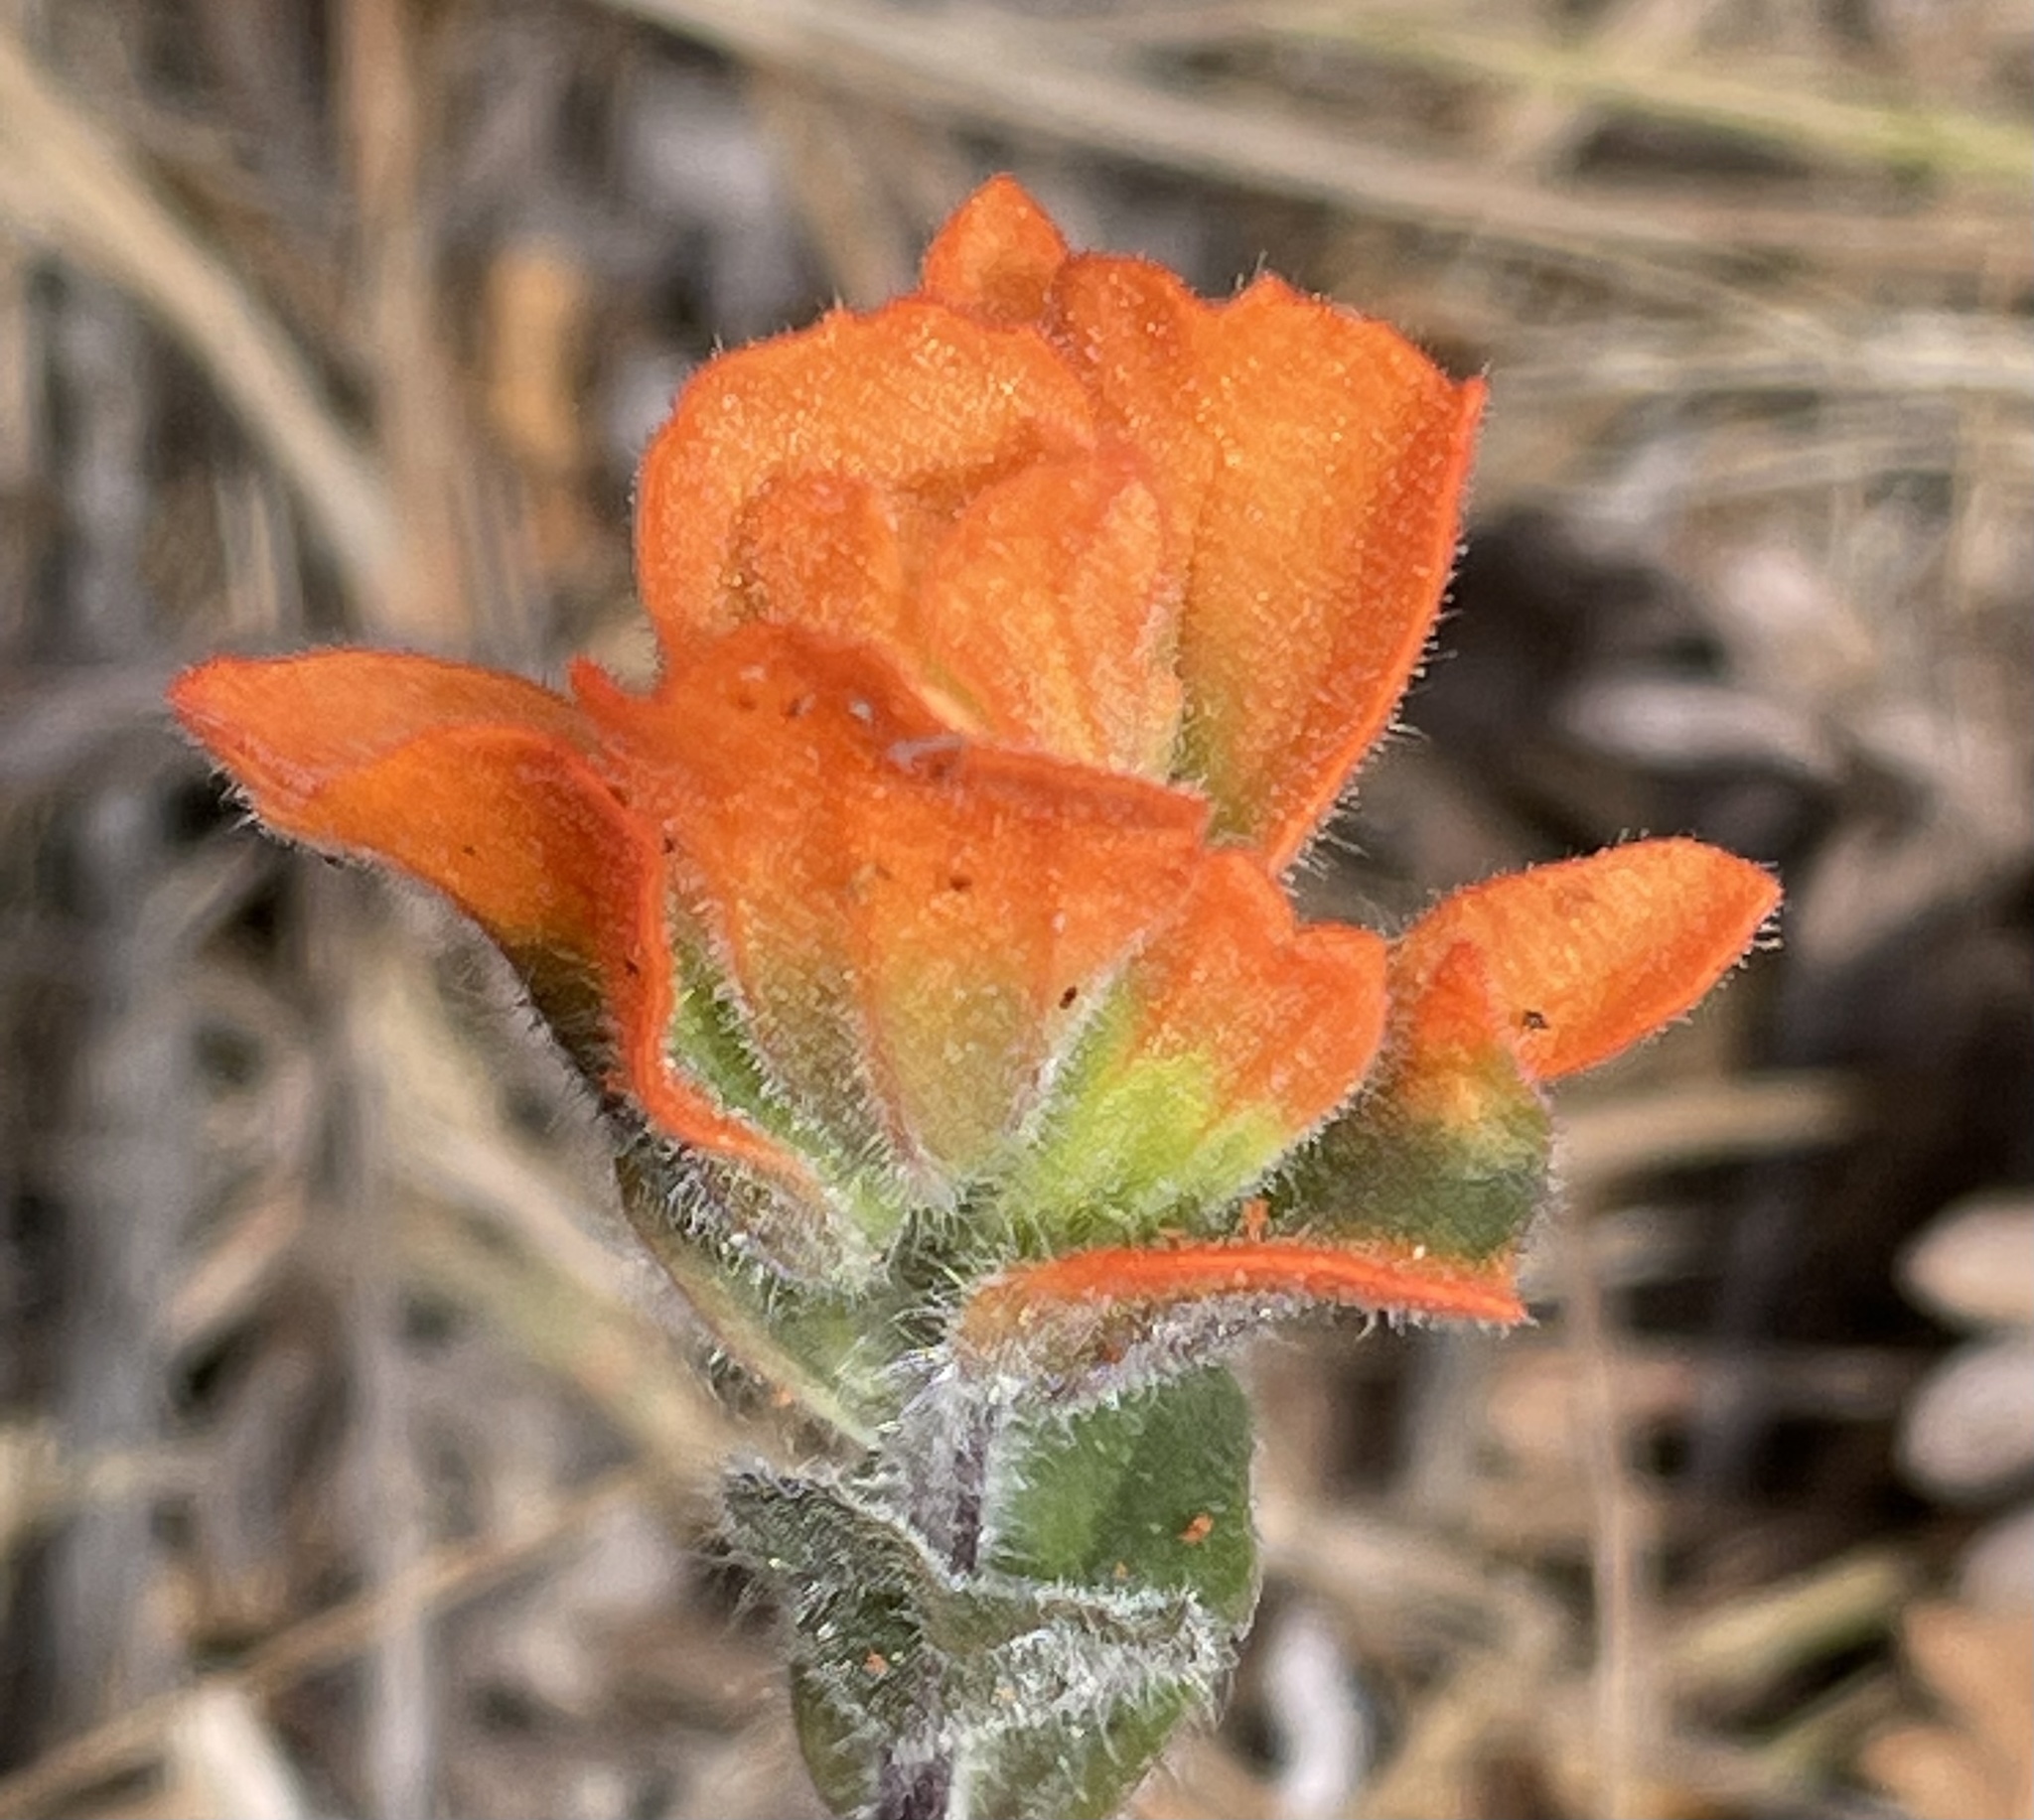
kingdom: Plantae
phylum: Tracheophyta
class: Magnoliopsida
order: Lamiales
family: Orobanchaceae
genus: Castilleja
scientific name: Castilleja latifolia
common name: Monterey indian paintbrush
